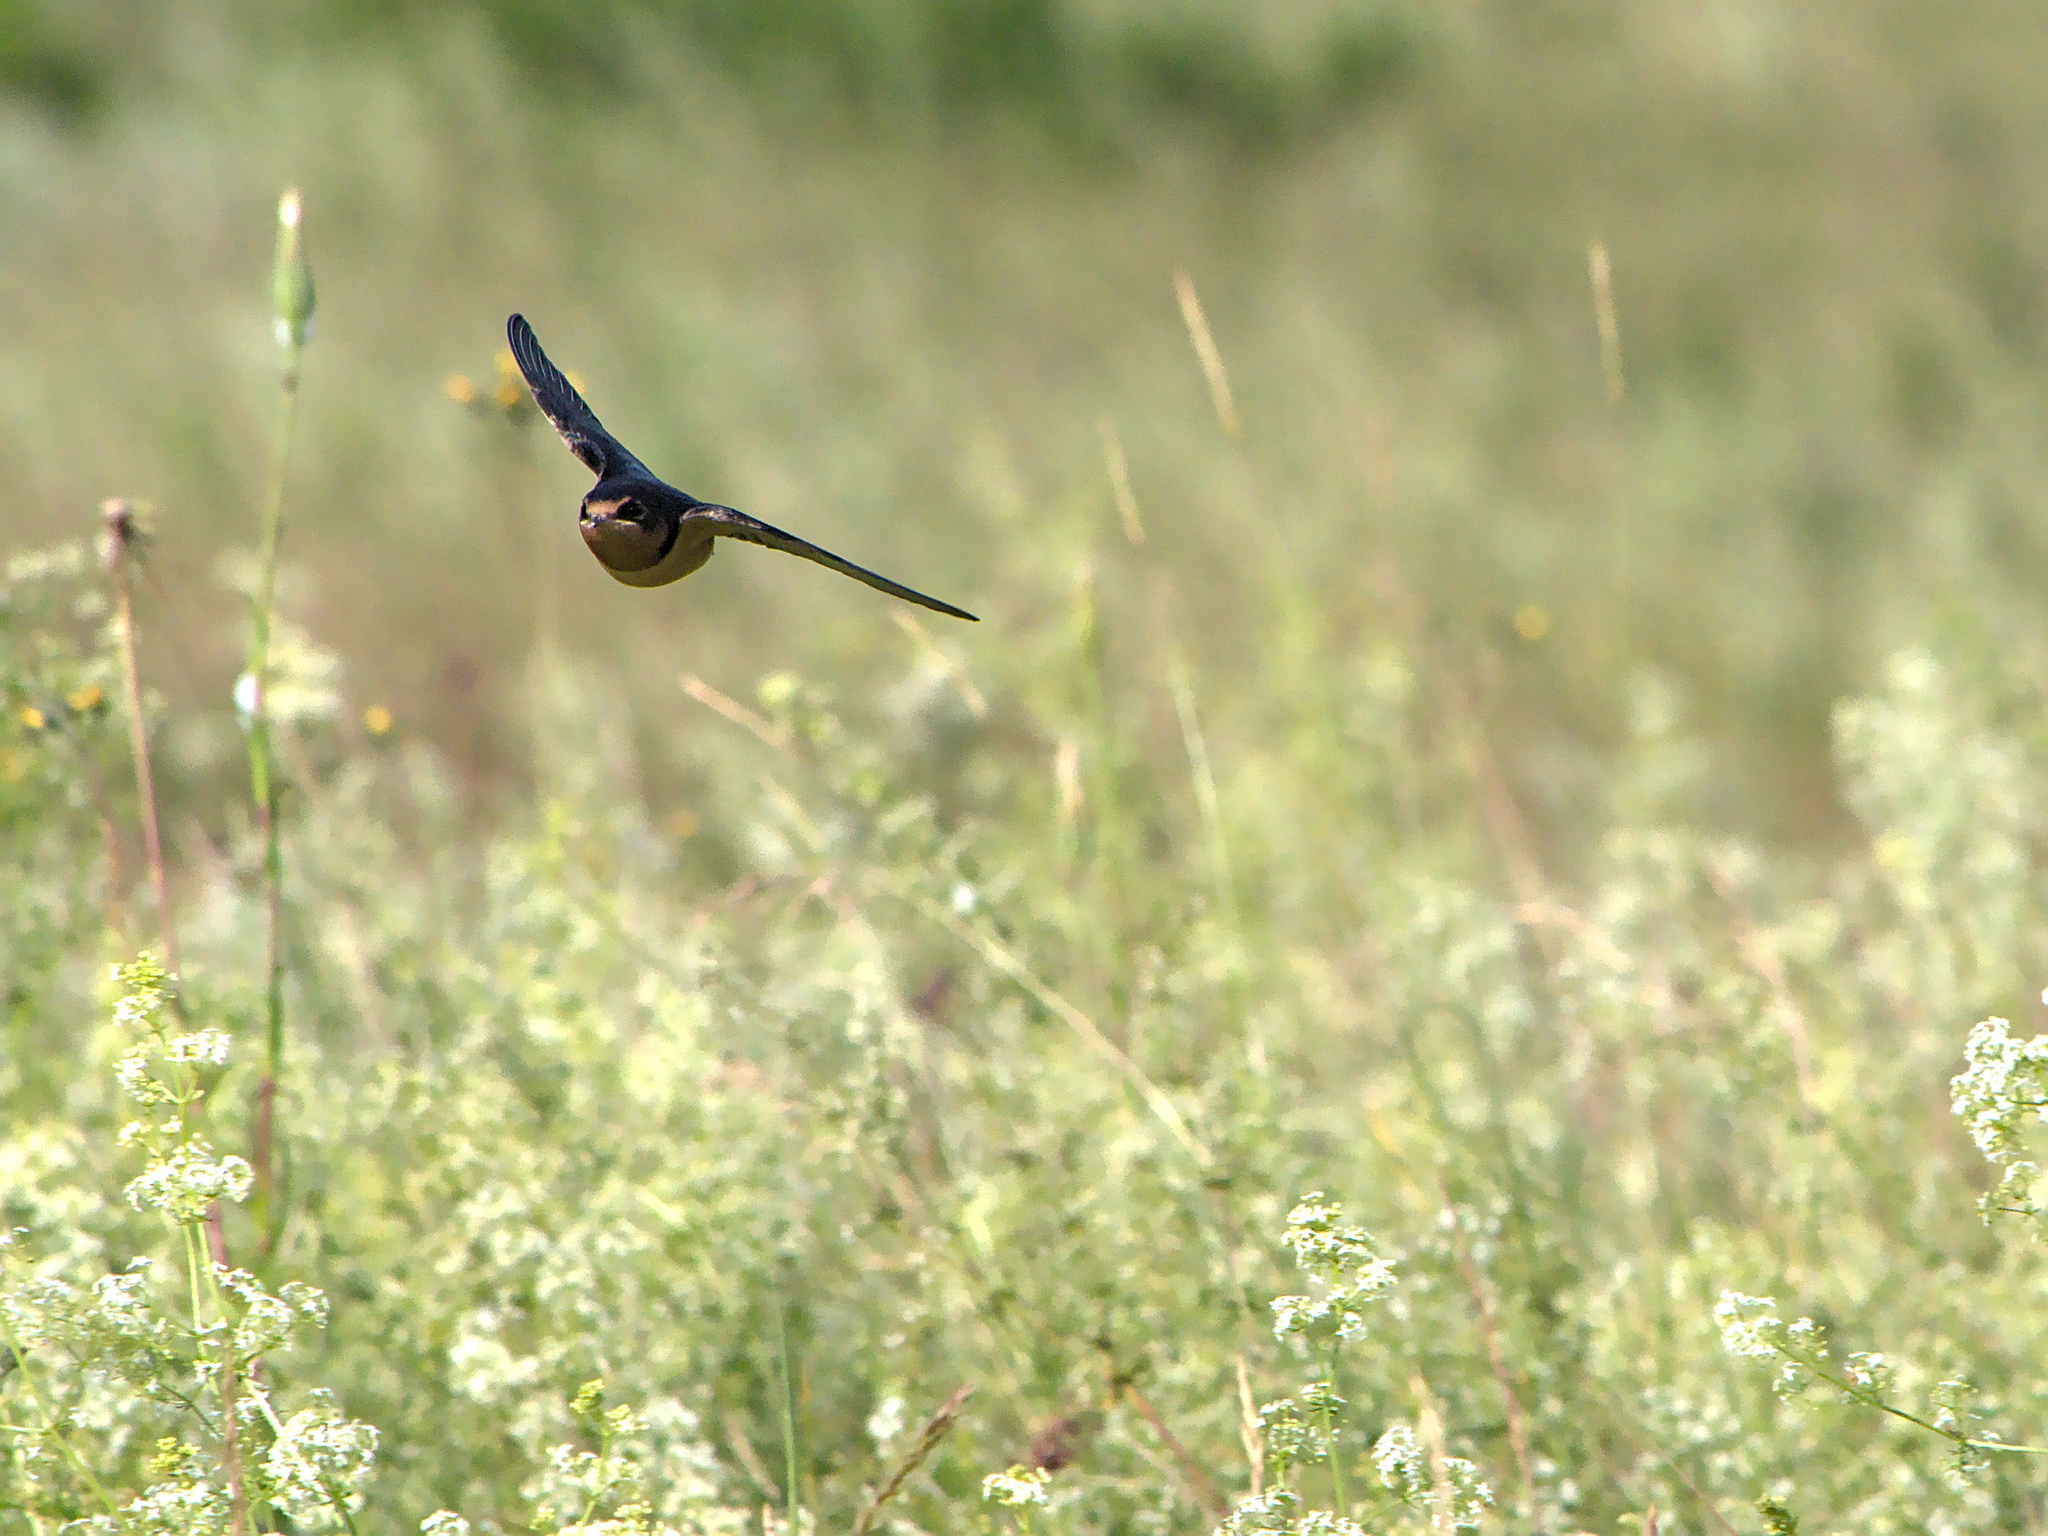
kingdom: Animalia
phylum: Chordata
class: Aves
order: Passeriformes
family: Hirundinidae
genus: Hirundo
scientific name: Hirundo rustica
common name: Barn swallow
